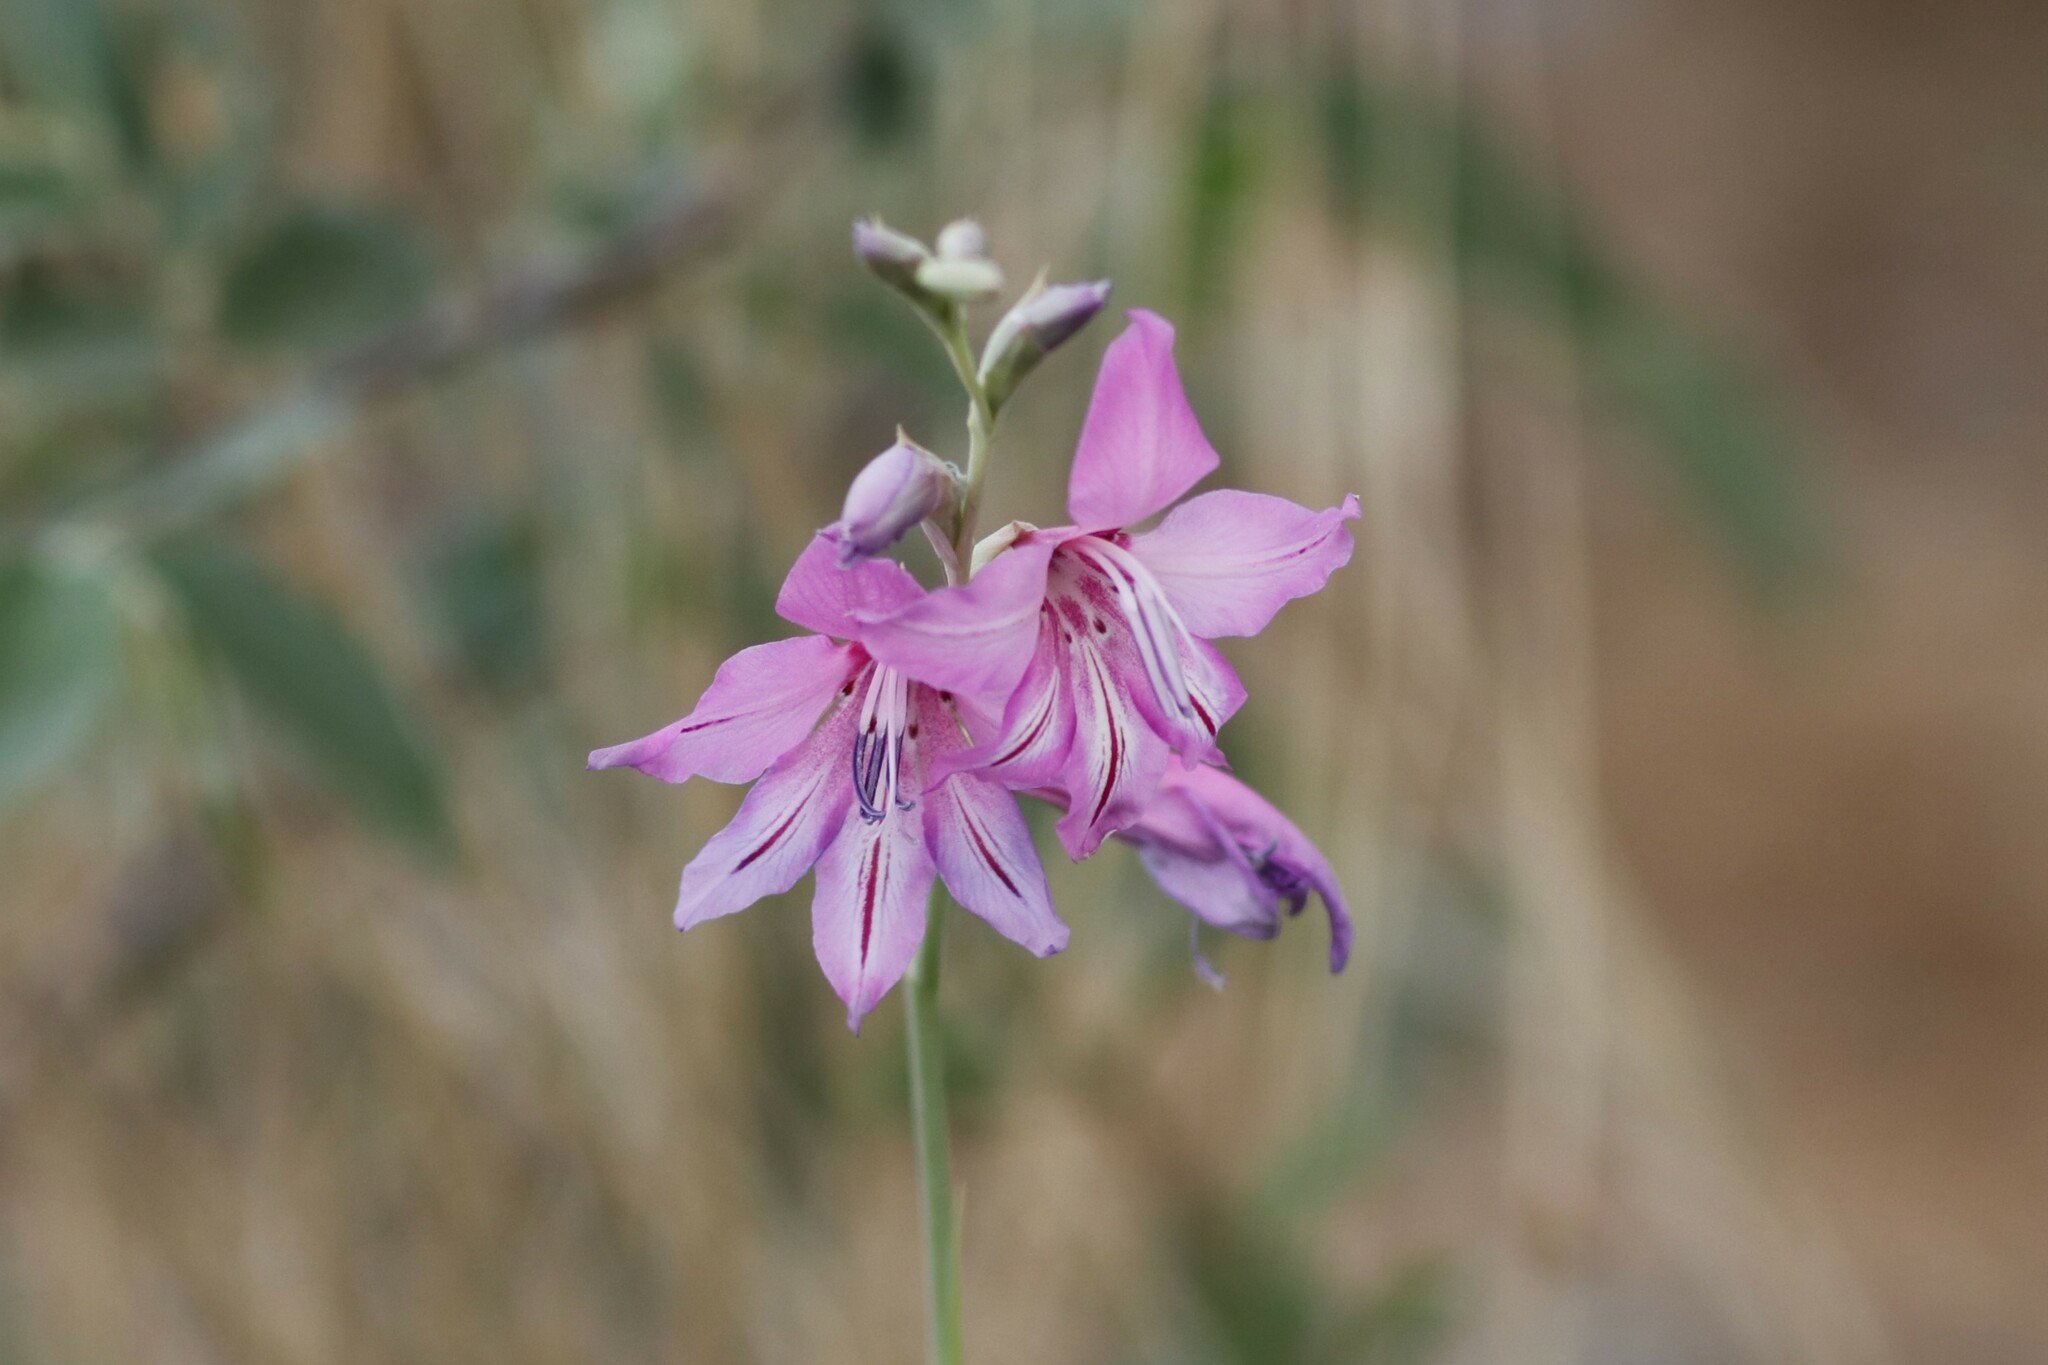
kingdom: Plantae
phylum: Tracheophyta
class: Liliopsida
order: Asparagales
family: Iridaceae
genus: Gladiolus
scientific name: Gladiolus brachyphyllus
